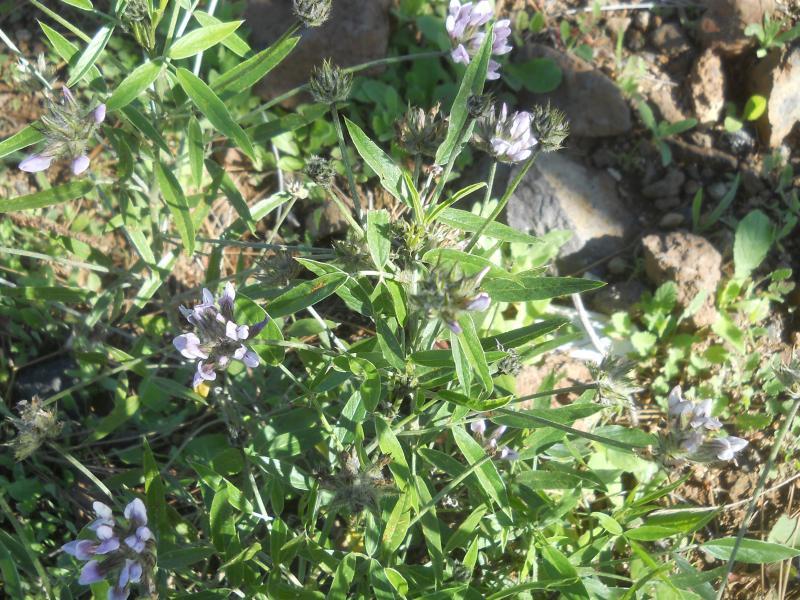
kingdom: Plantae
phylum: Tracheophyta
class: Magnoliopsida
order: Fabales
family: Fabaceae
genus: Bituminaria
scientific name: Bituminaria bituminosa
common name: Arabian pea
